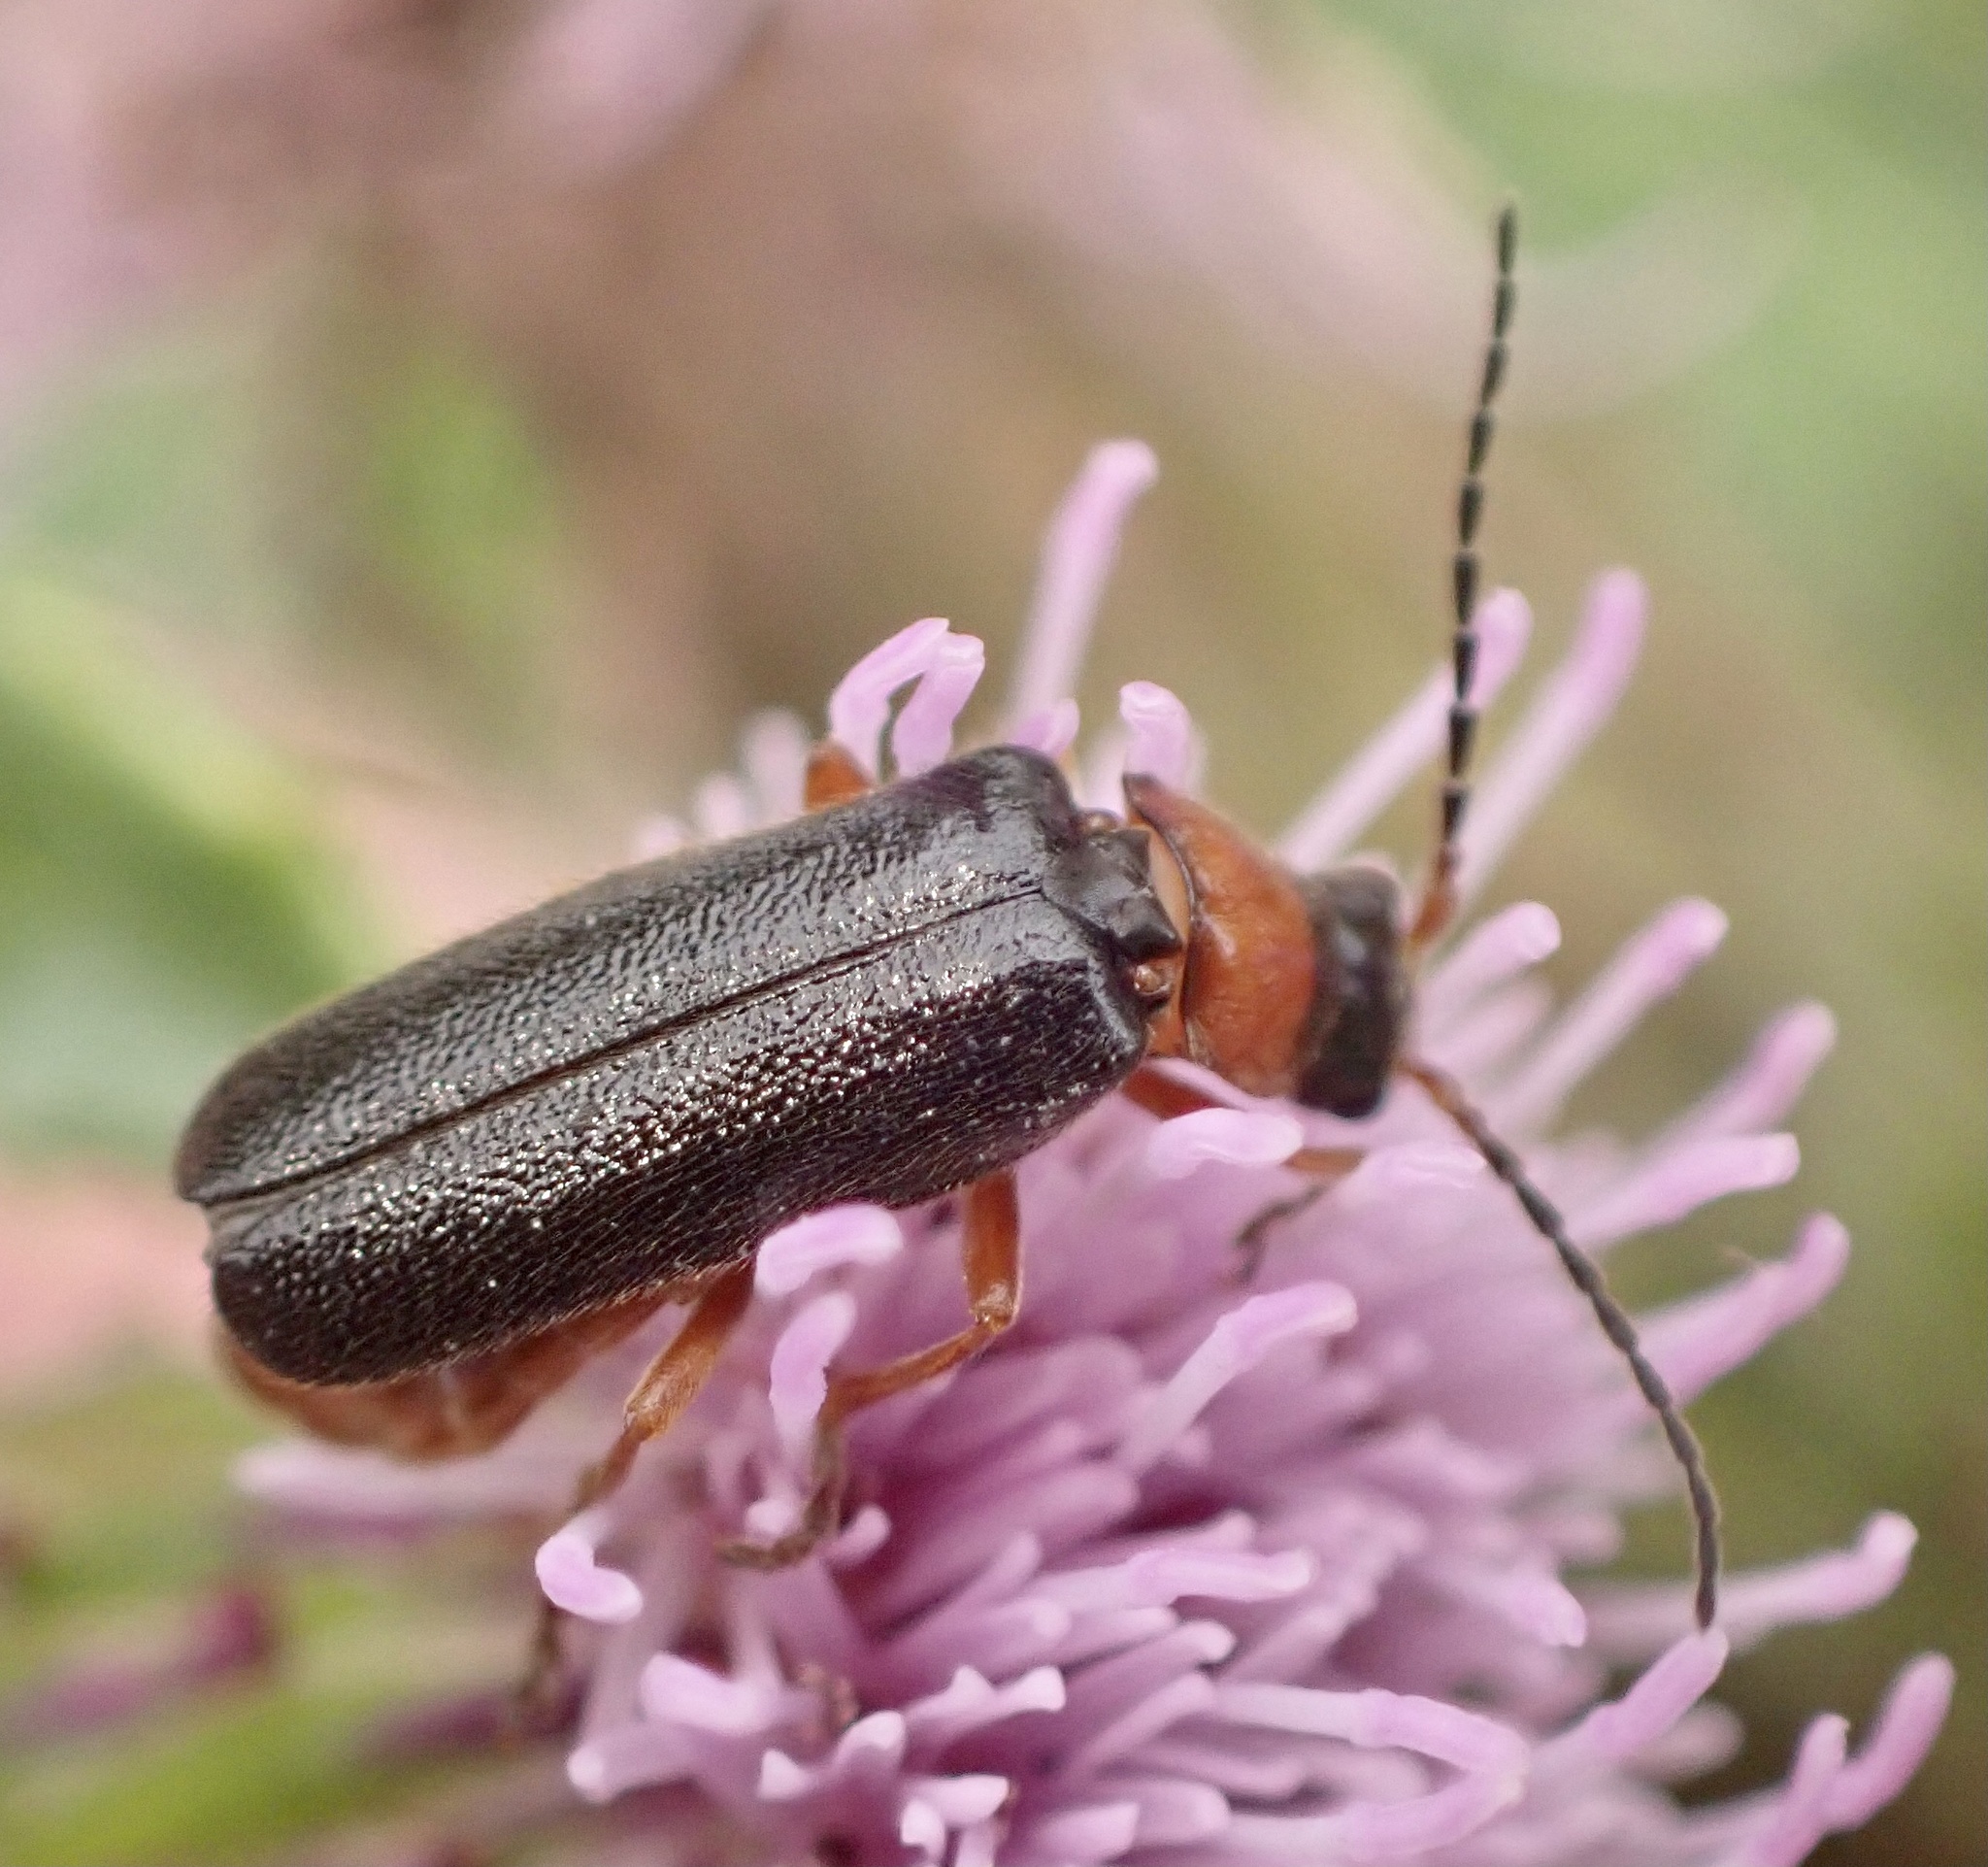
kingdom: Animalia
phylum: Arthropoda
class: Insecta
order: Coleoptera
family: Cantharidae
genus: Cantharis
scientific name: Cantharis flavilabris
